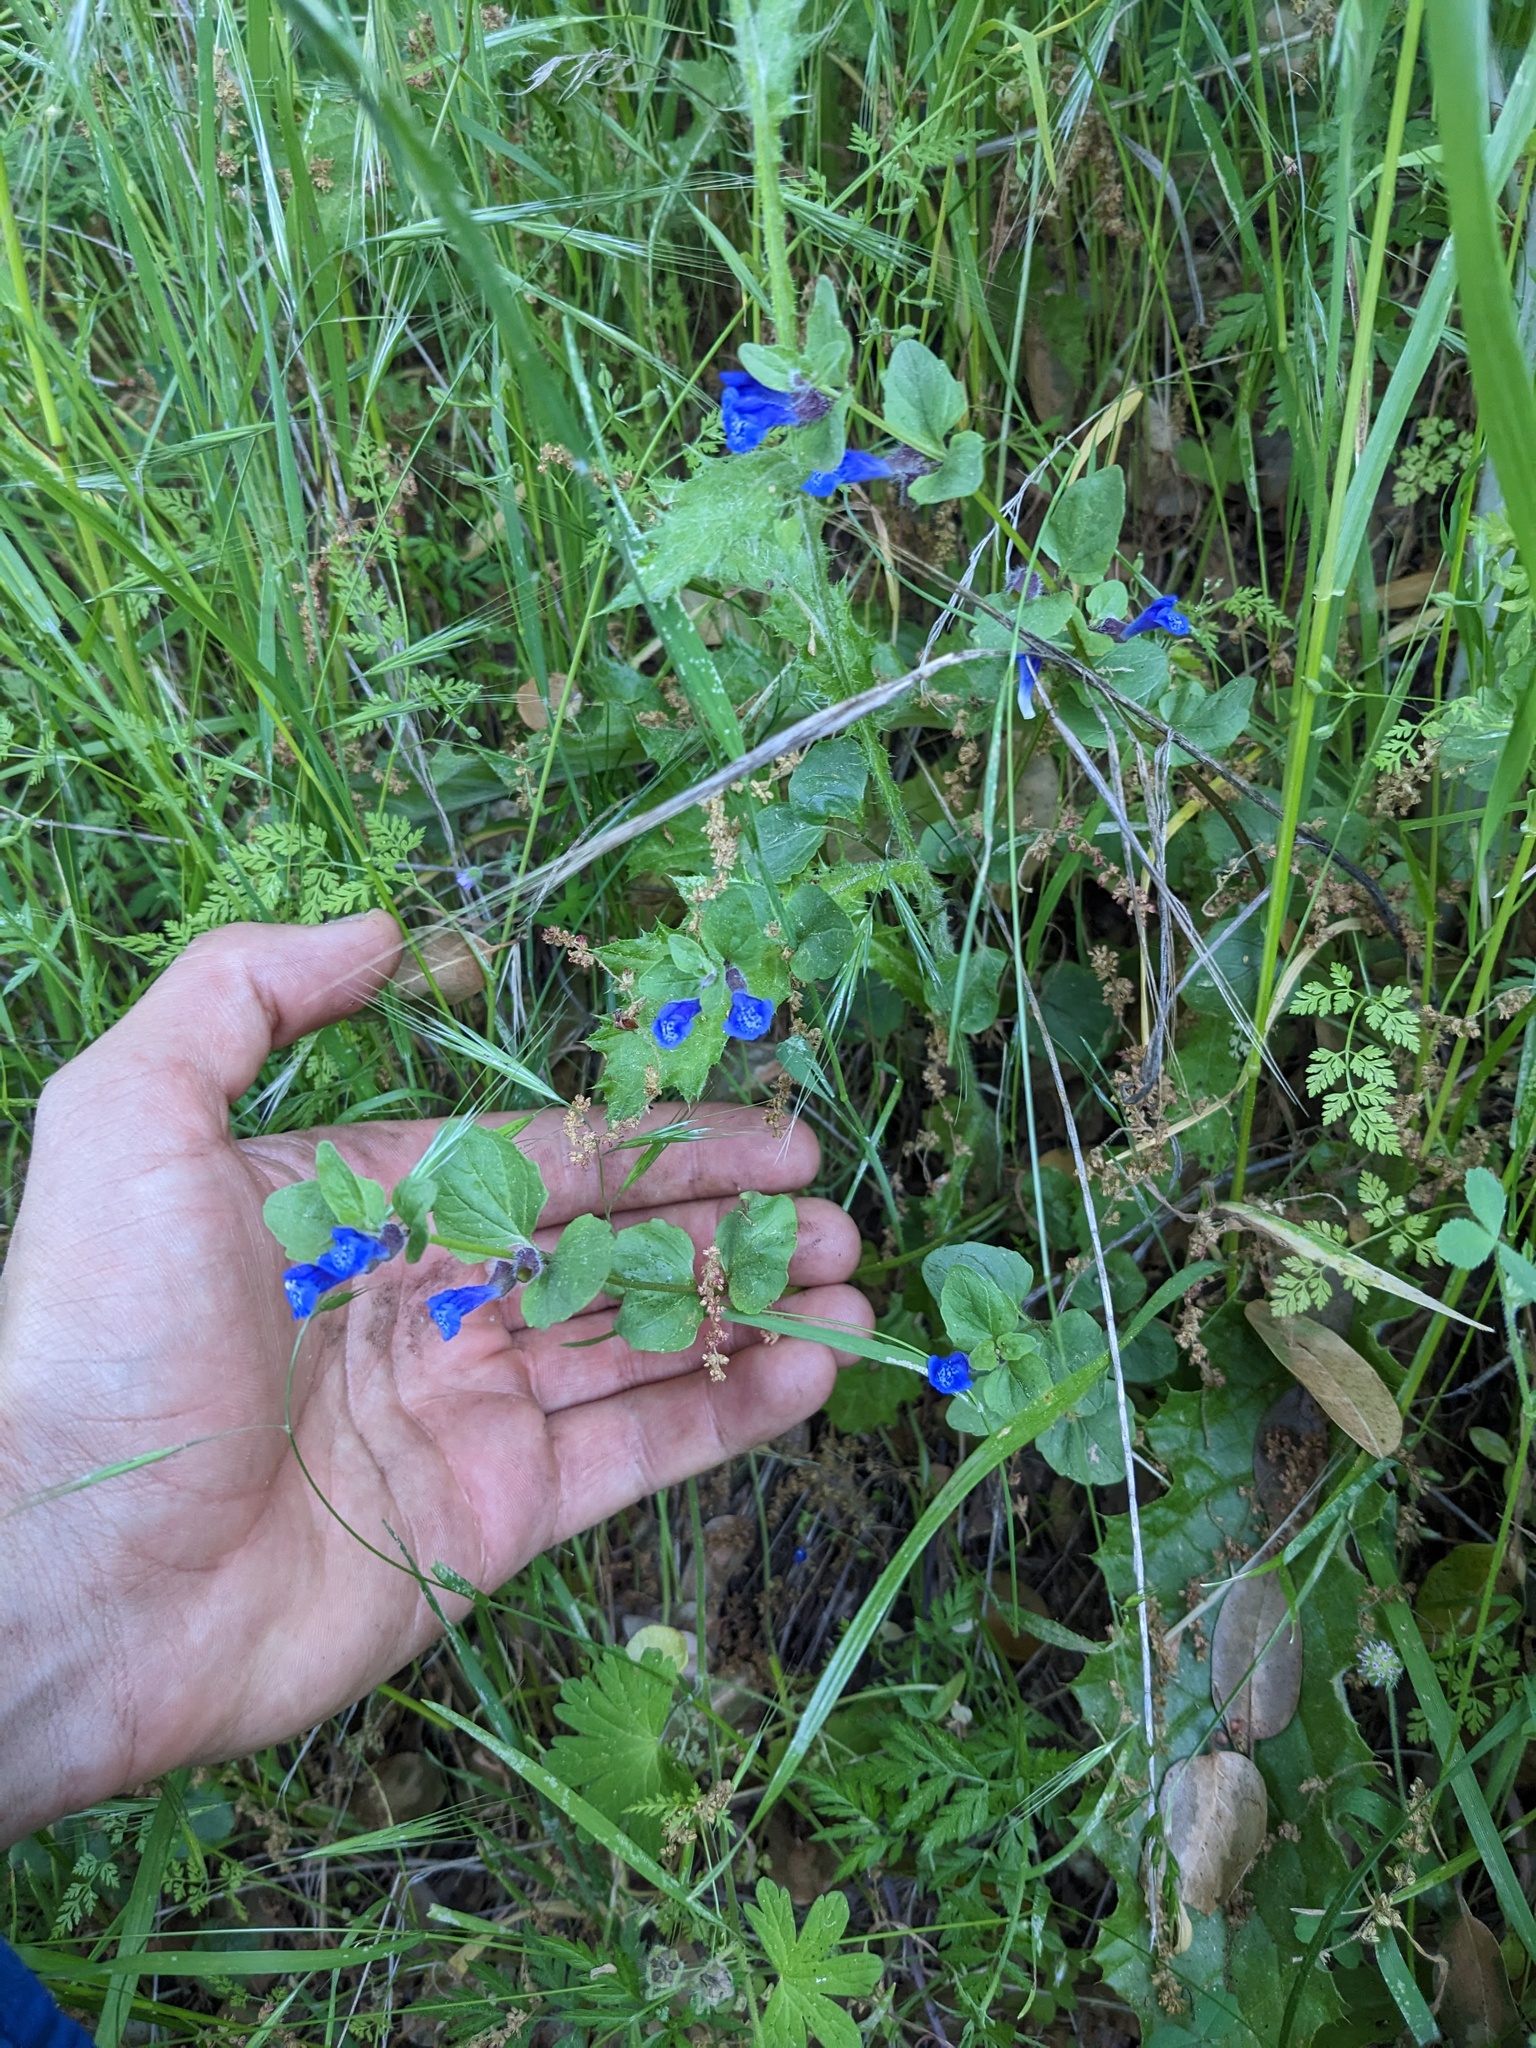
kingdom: Plantae
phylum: Tracheophyta
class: Magnoliopsida
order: Lamiales
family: Lamiaceae
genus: Scutellaria
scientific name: Scutellaria tuberosa
